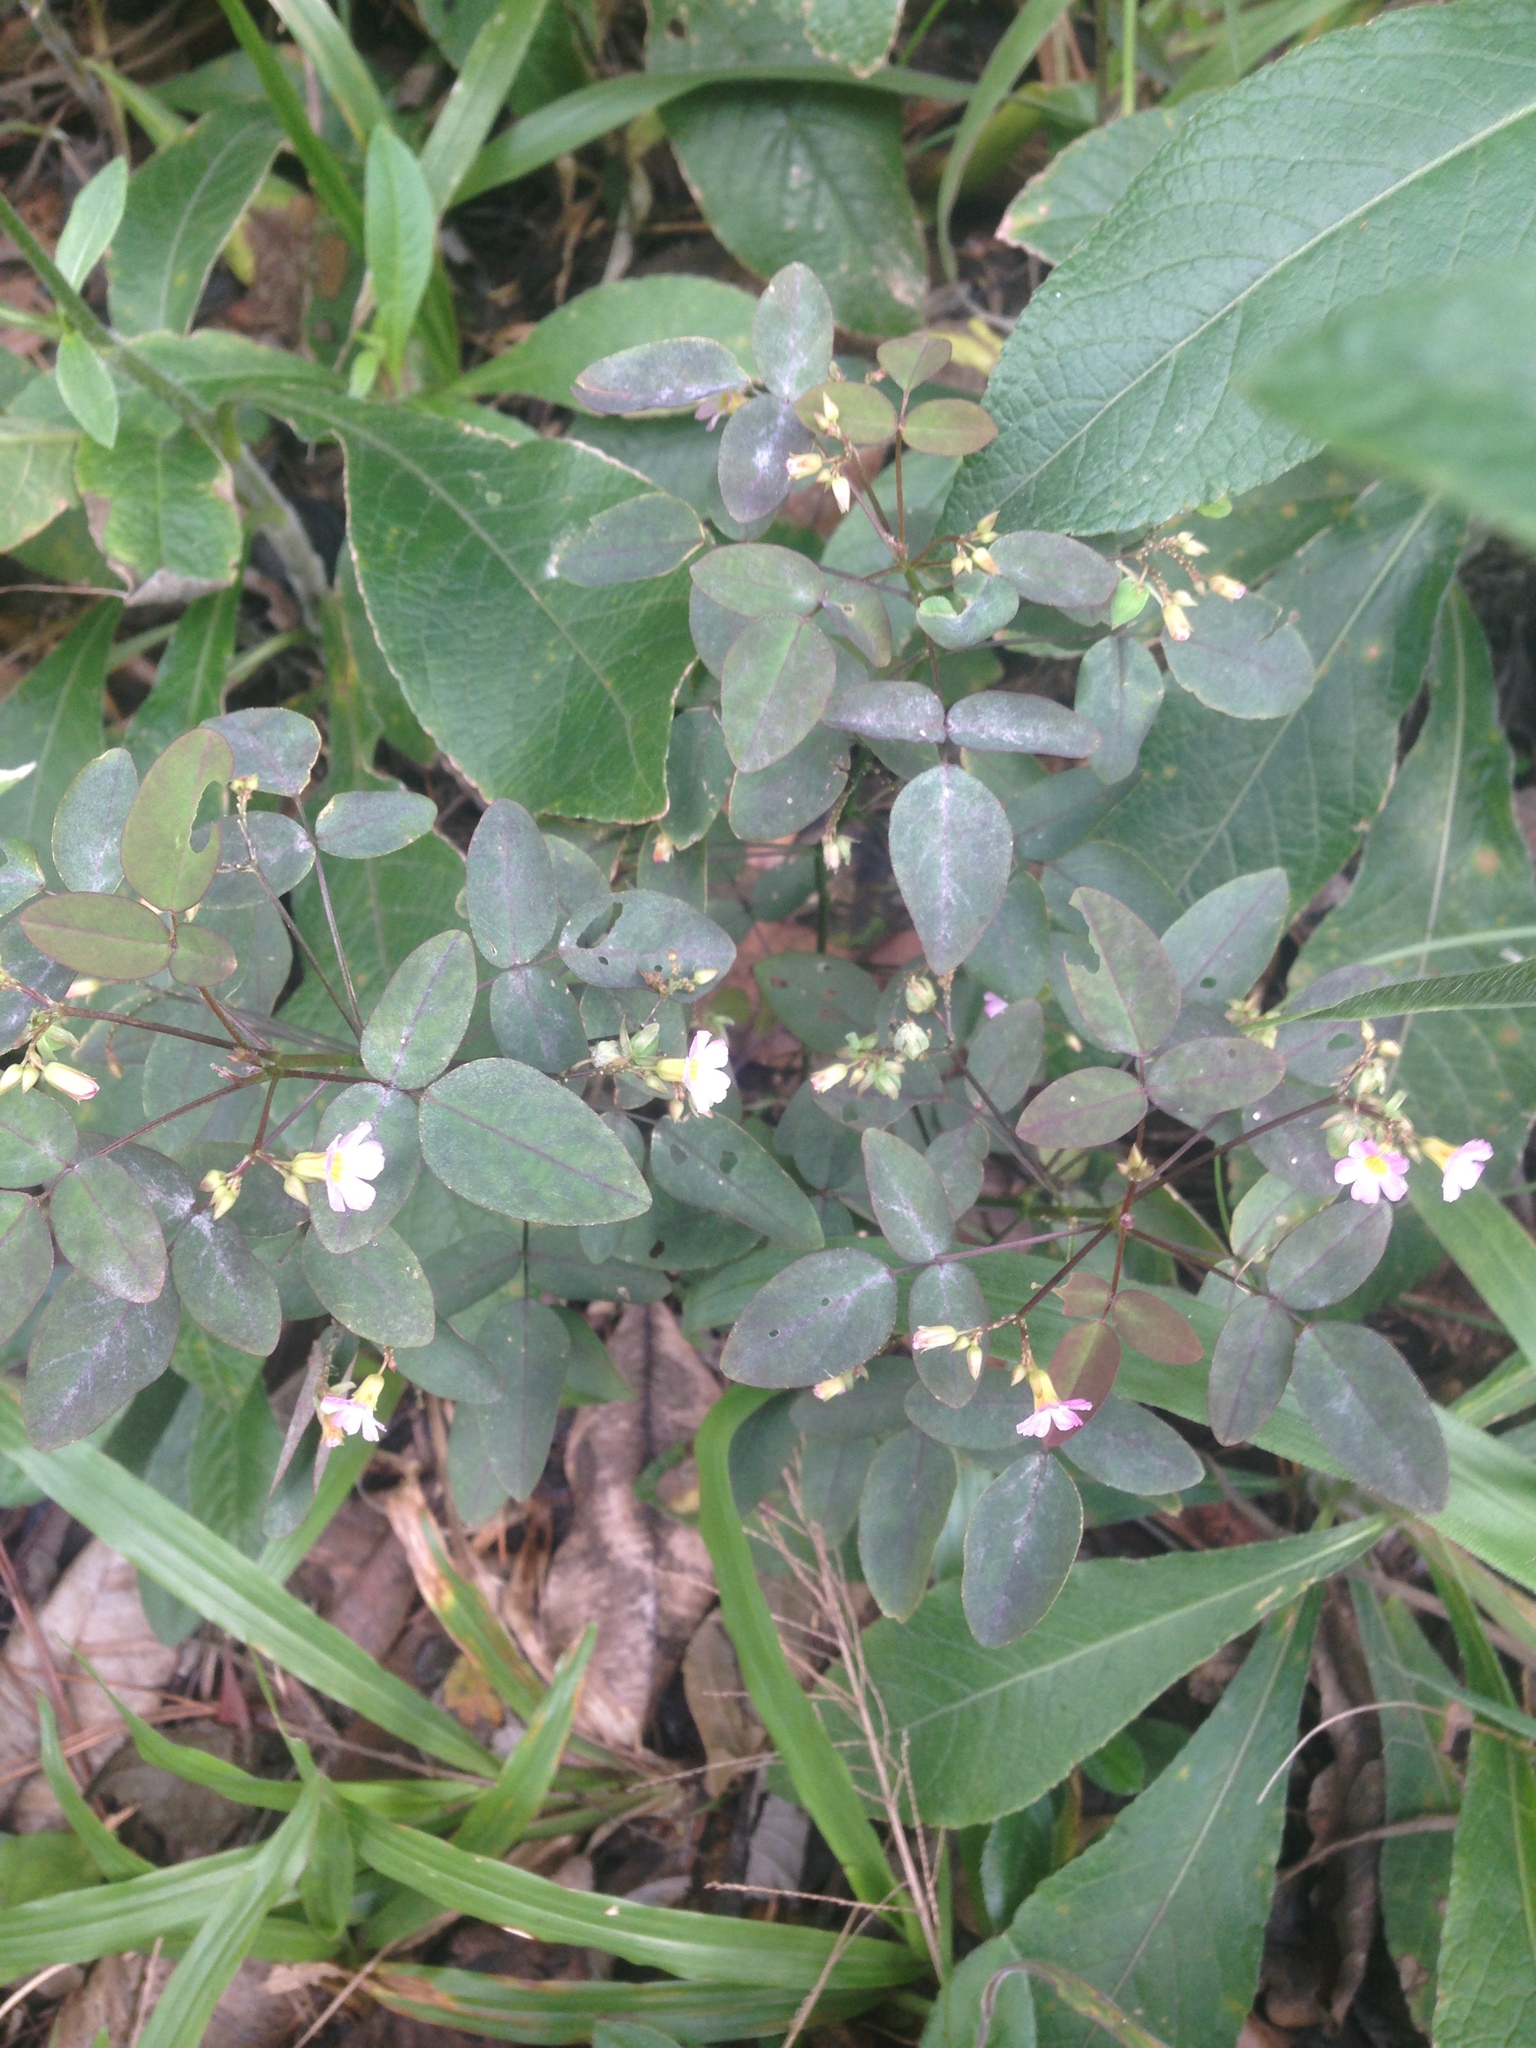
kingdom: Plantae
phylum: Tracheophyta
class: Magnoliopsida
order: Oxalidales
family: Oxalidaceae
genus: Oxalis
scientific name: Oxalis barrelieri
